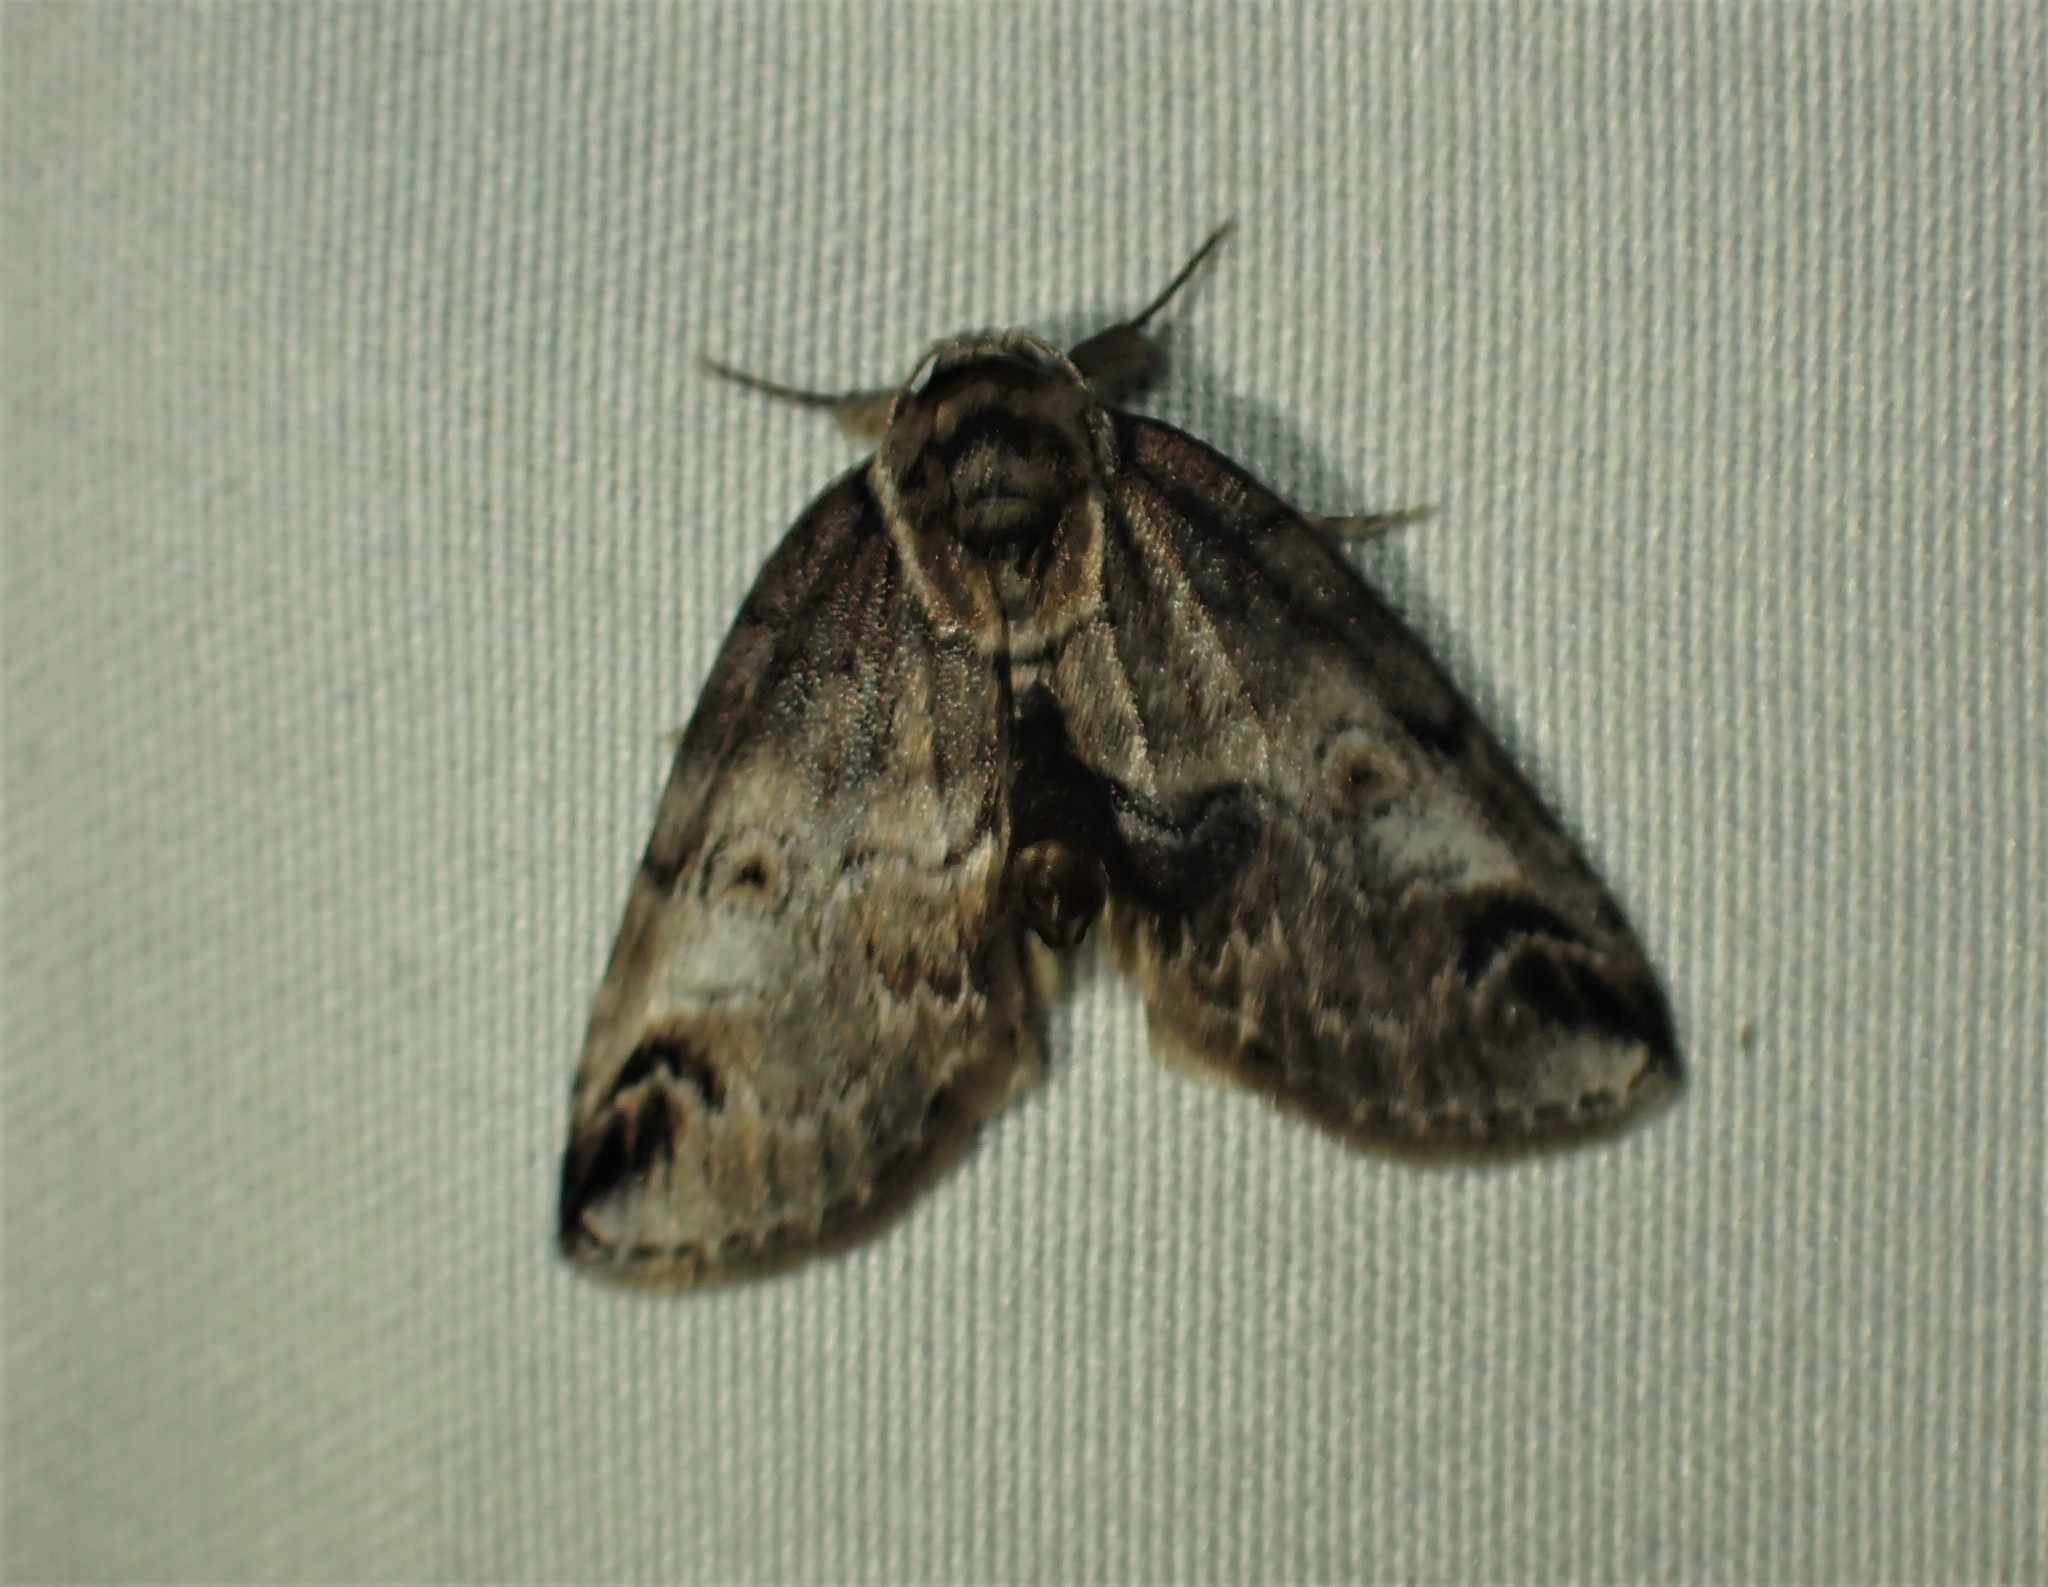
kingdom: Animalia
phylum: Arthropoda
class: Insecta
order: Lepidoptera
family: Nolidae
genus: Baileya
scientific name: Baileya ophthalmica
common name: Eyed baileya moth
